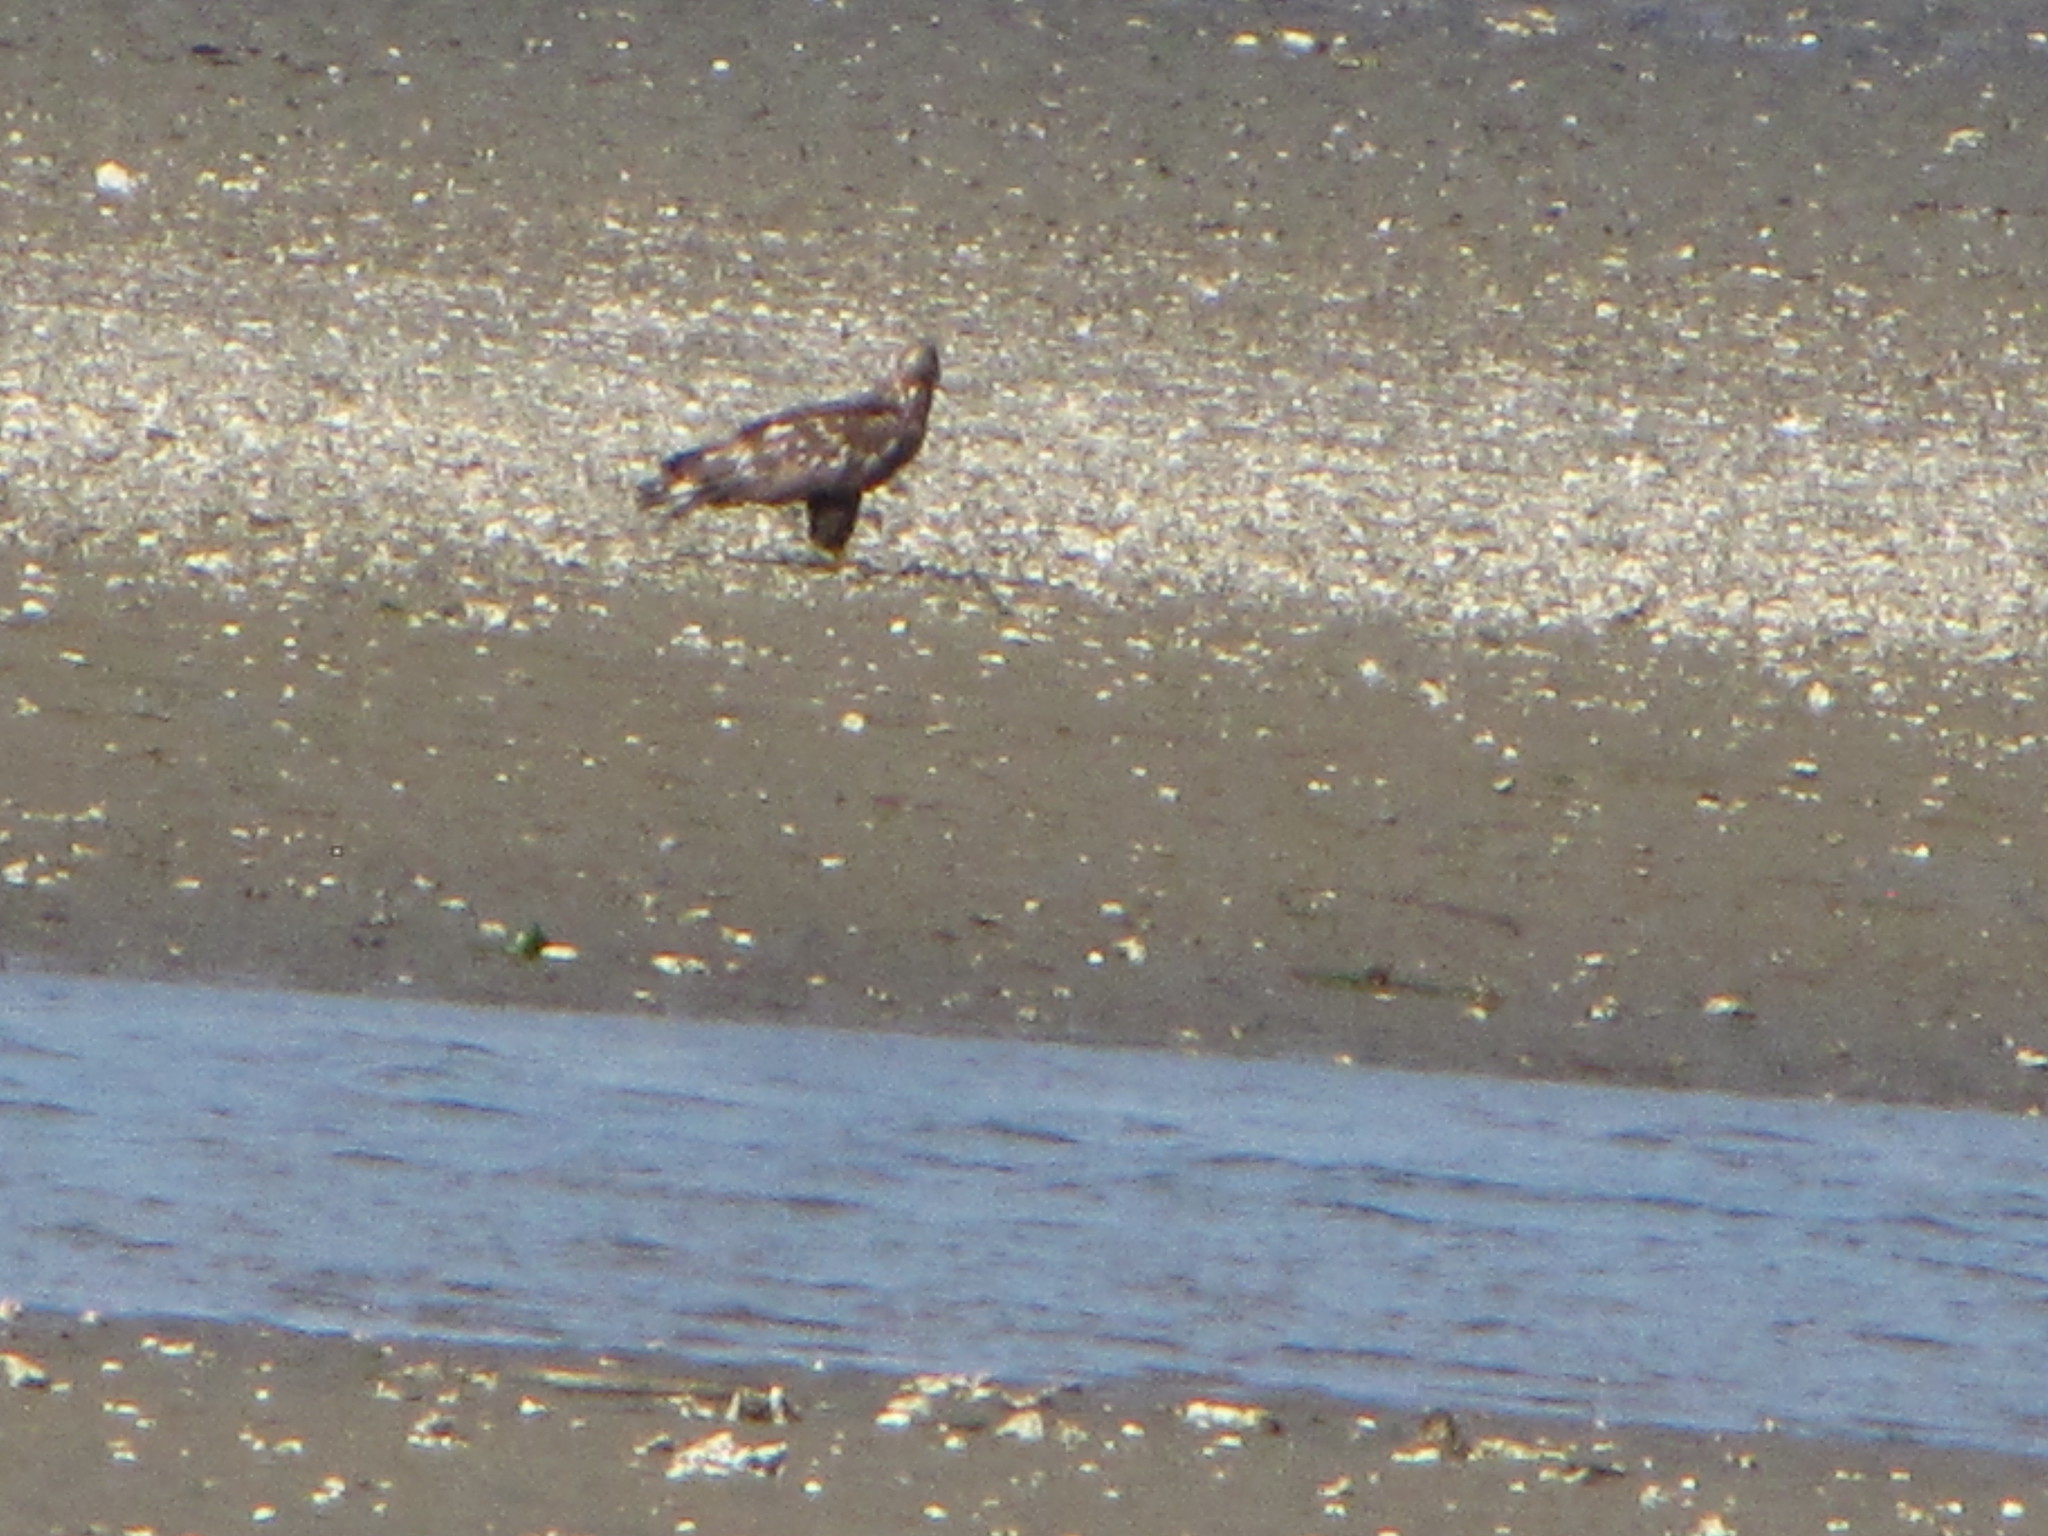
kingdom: Animalia
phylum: Chordata
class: Aves
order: Accipitriformes
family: Accipitridae
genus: Haliaeetus
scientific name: Haliaeetus leucocephalus
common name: Bald eagle
